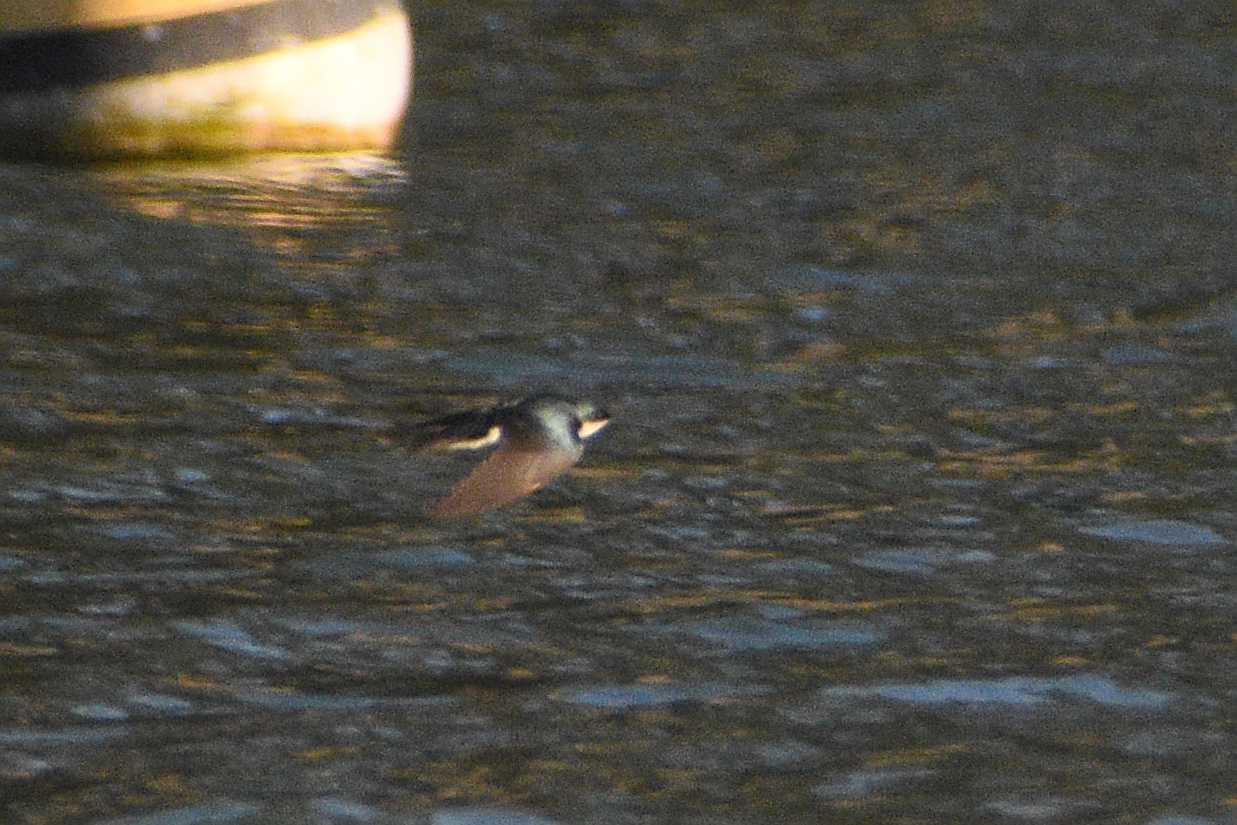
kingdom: Animalia
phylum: Chordata
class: Aves
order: Passeriformes
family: Hirundinidae
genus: Tachycineta
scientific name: Tachycineta bicolor
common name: Tree swallow
